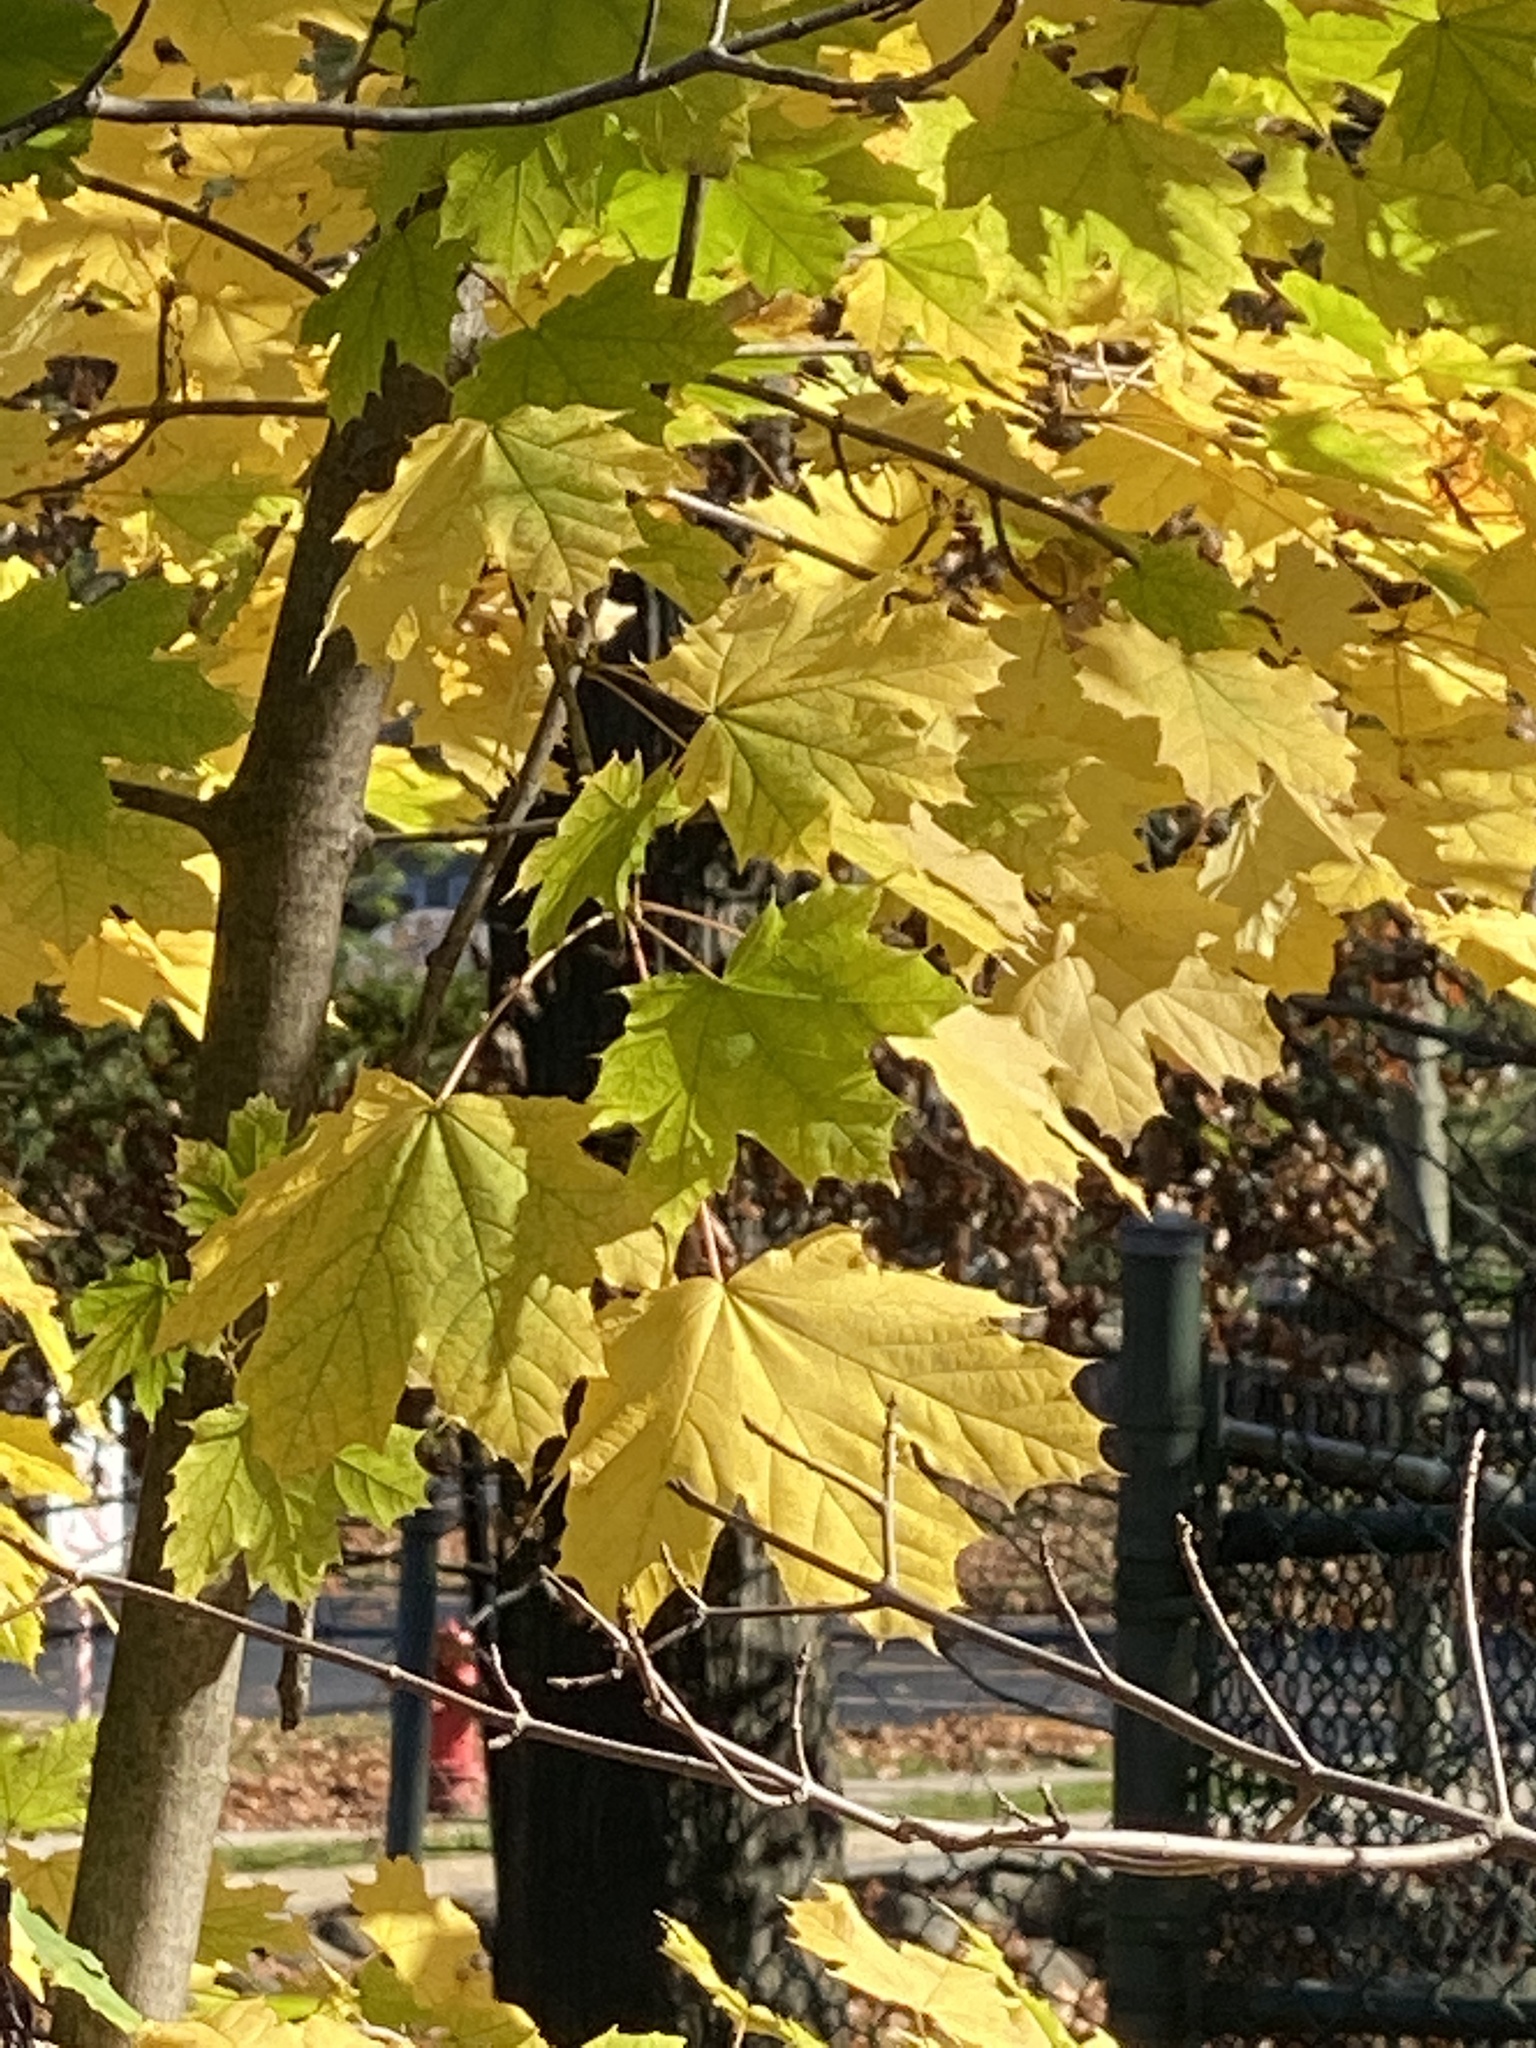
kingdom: Plantae
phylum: Tracheophyta
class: Magnoliopsida
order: Sapindales
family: Sapindaceae
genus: Acer
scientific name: Acer platanoides
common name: Norway maple
